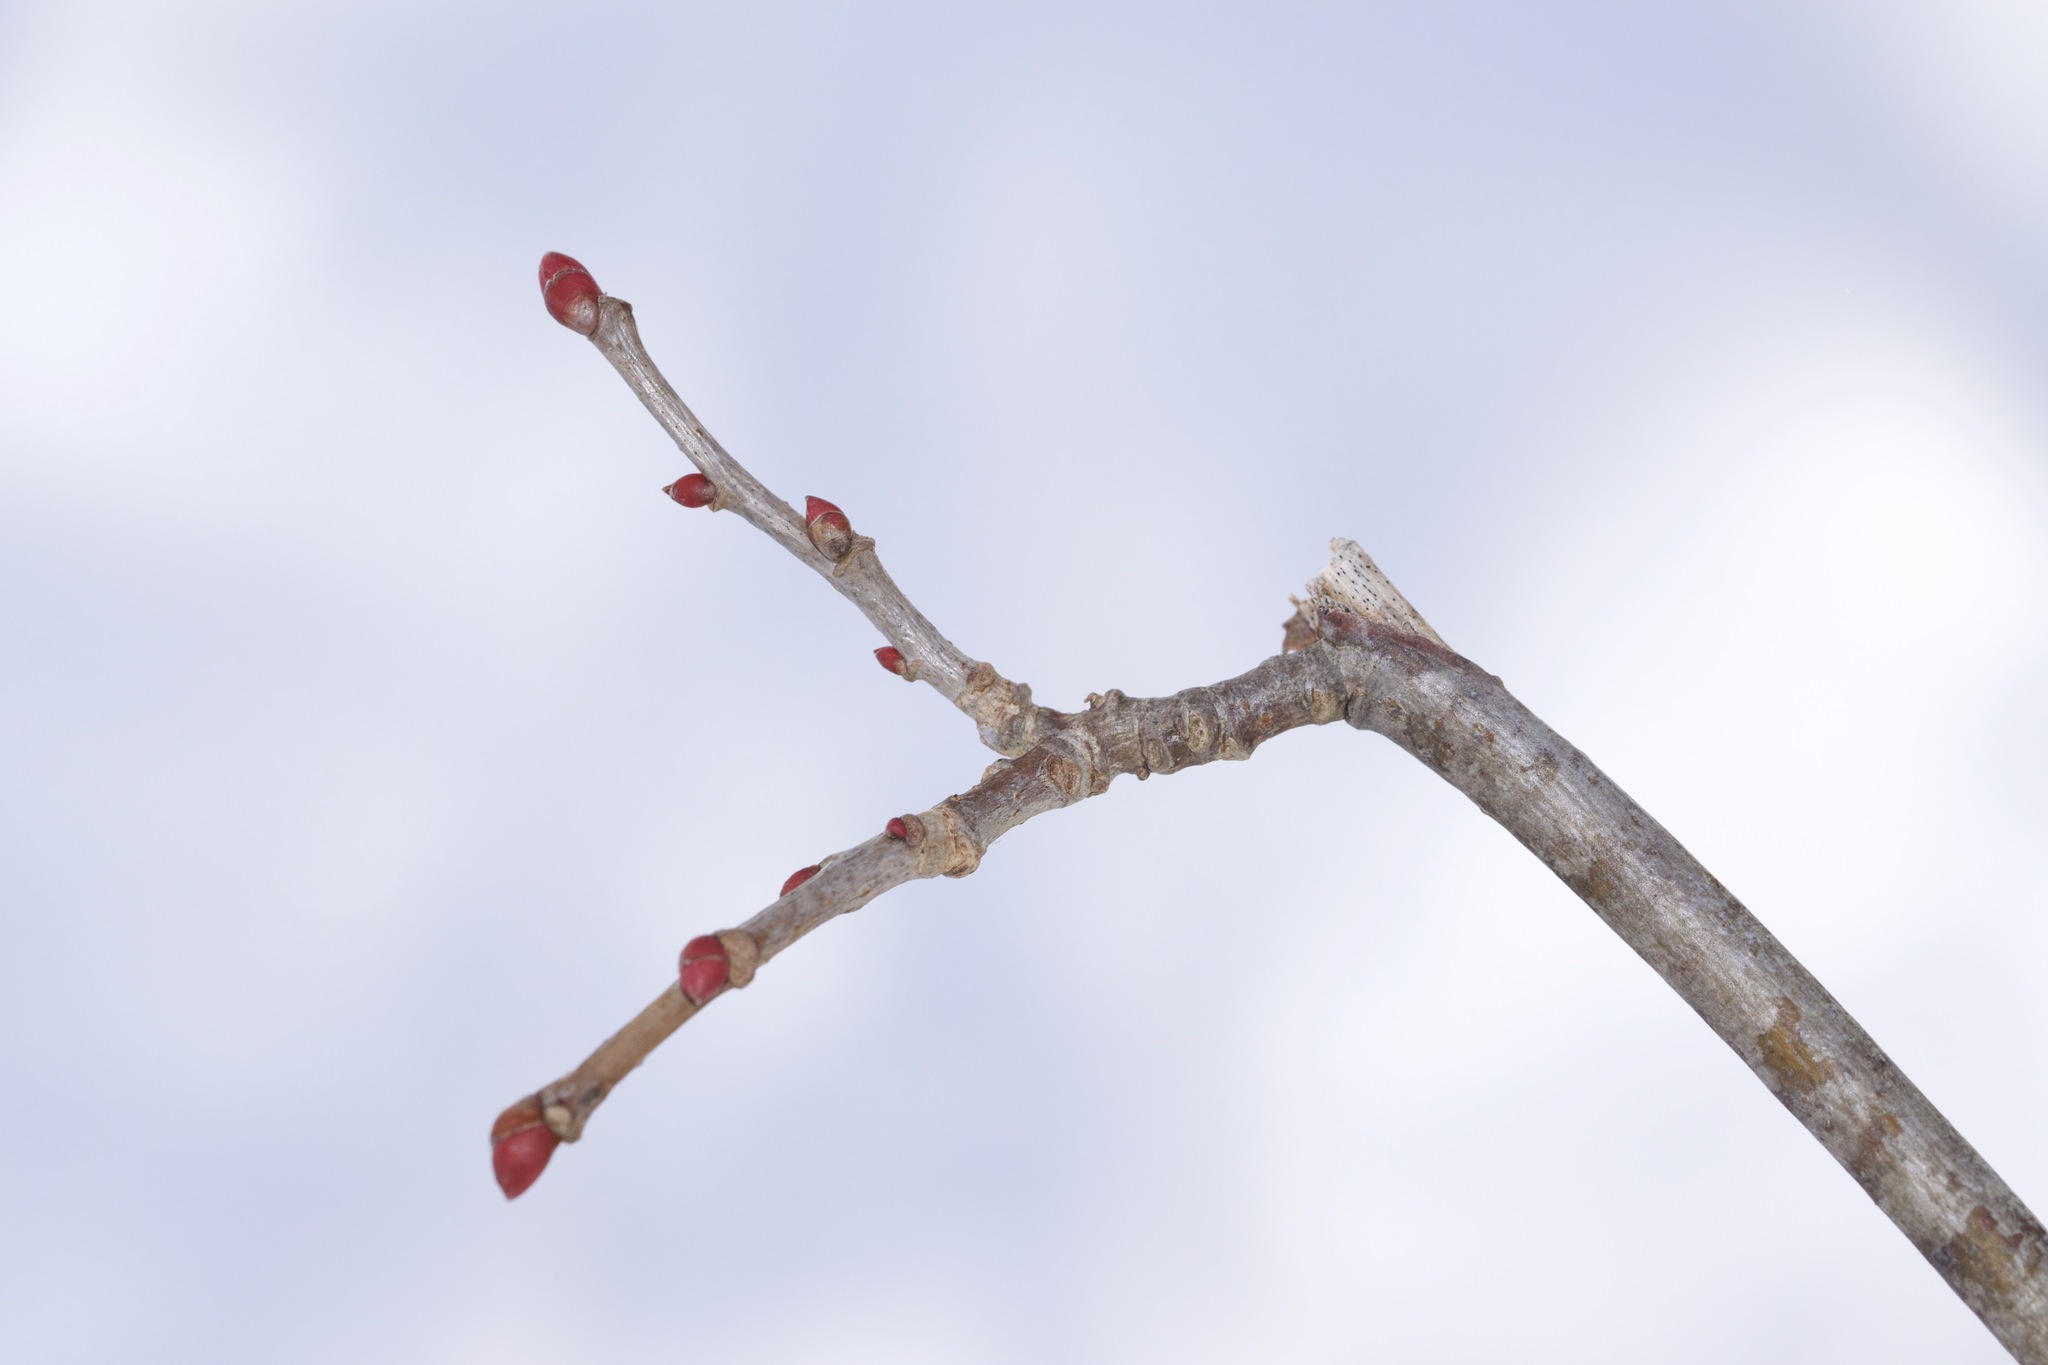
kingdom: Plantae
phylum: Tracheophyta
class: Magnoliopsida
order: Malvales
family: Malvaceae
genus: Tilia
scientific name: Tilia americana
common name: Basswood
